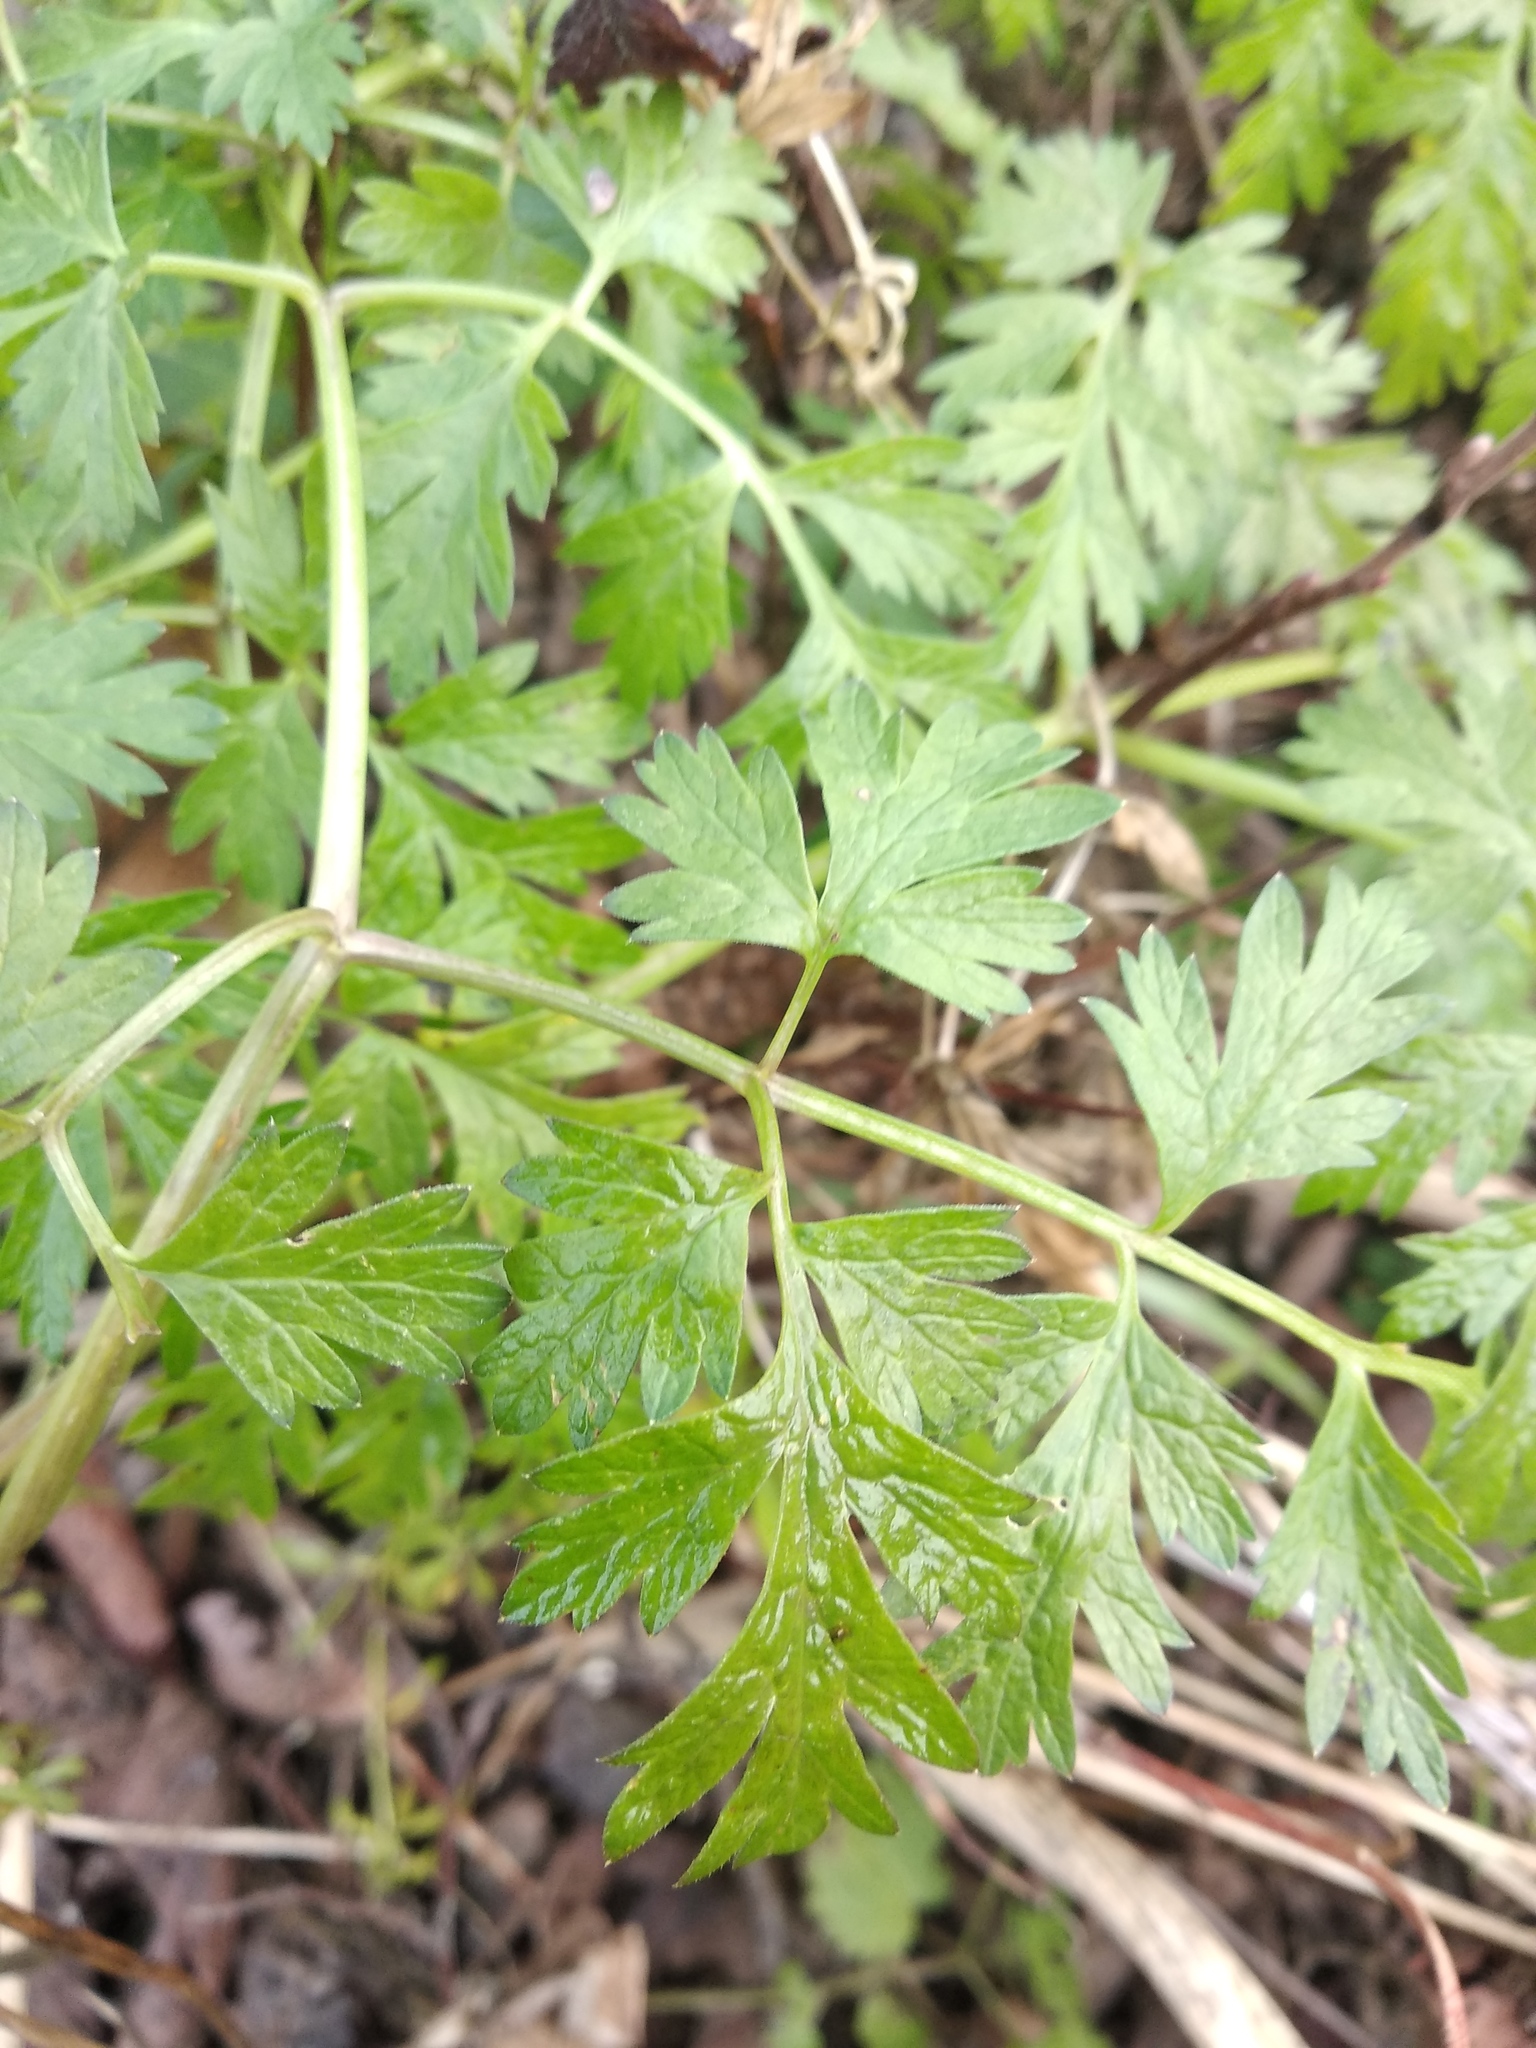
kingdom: Plantae
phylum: Tracheophyta
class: Magnoliopsida
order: Apiales
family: Apiaceae
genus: Anthriscus
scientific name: Anthriscus sylvestris
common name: Cow parsley
